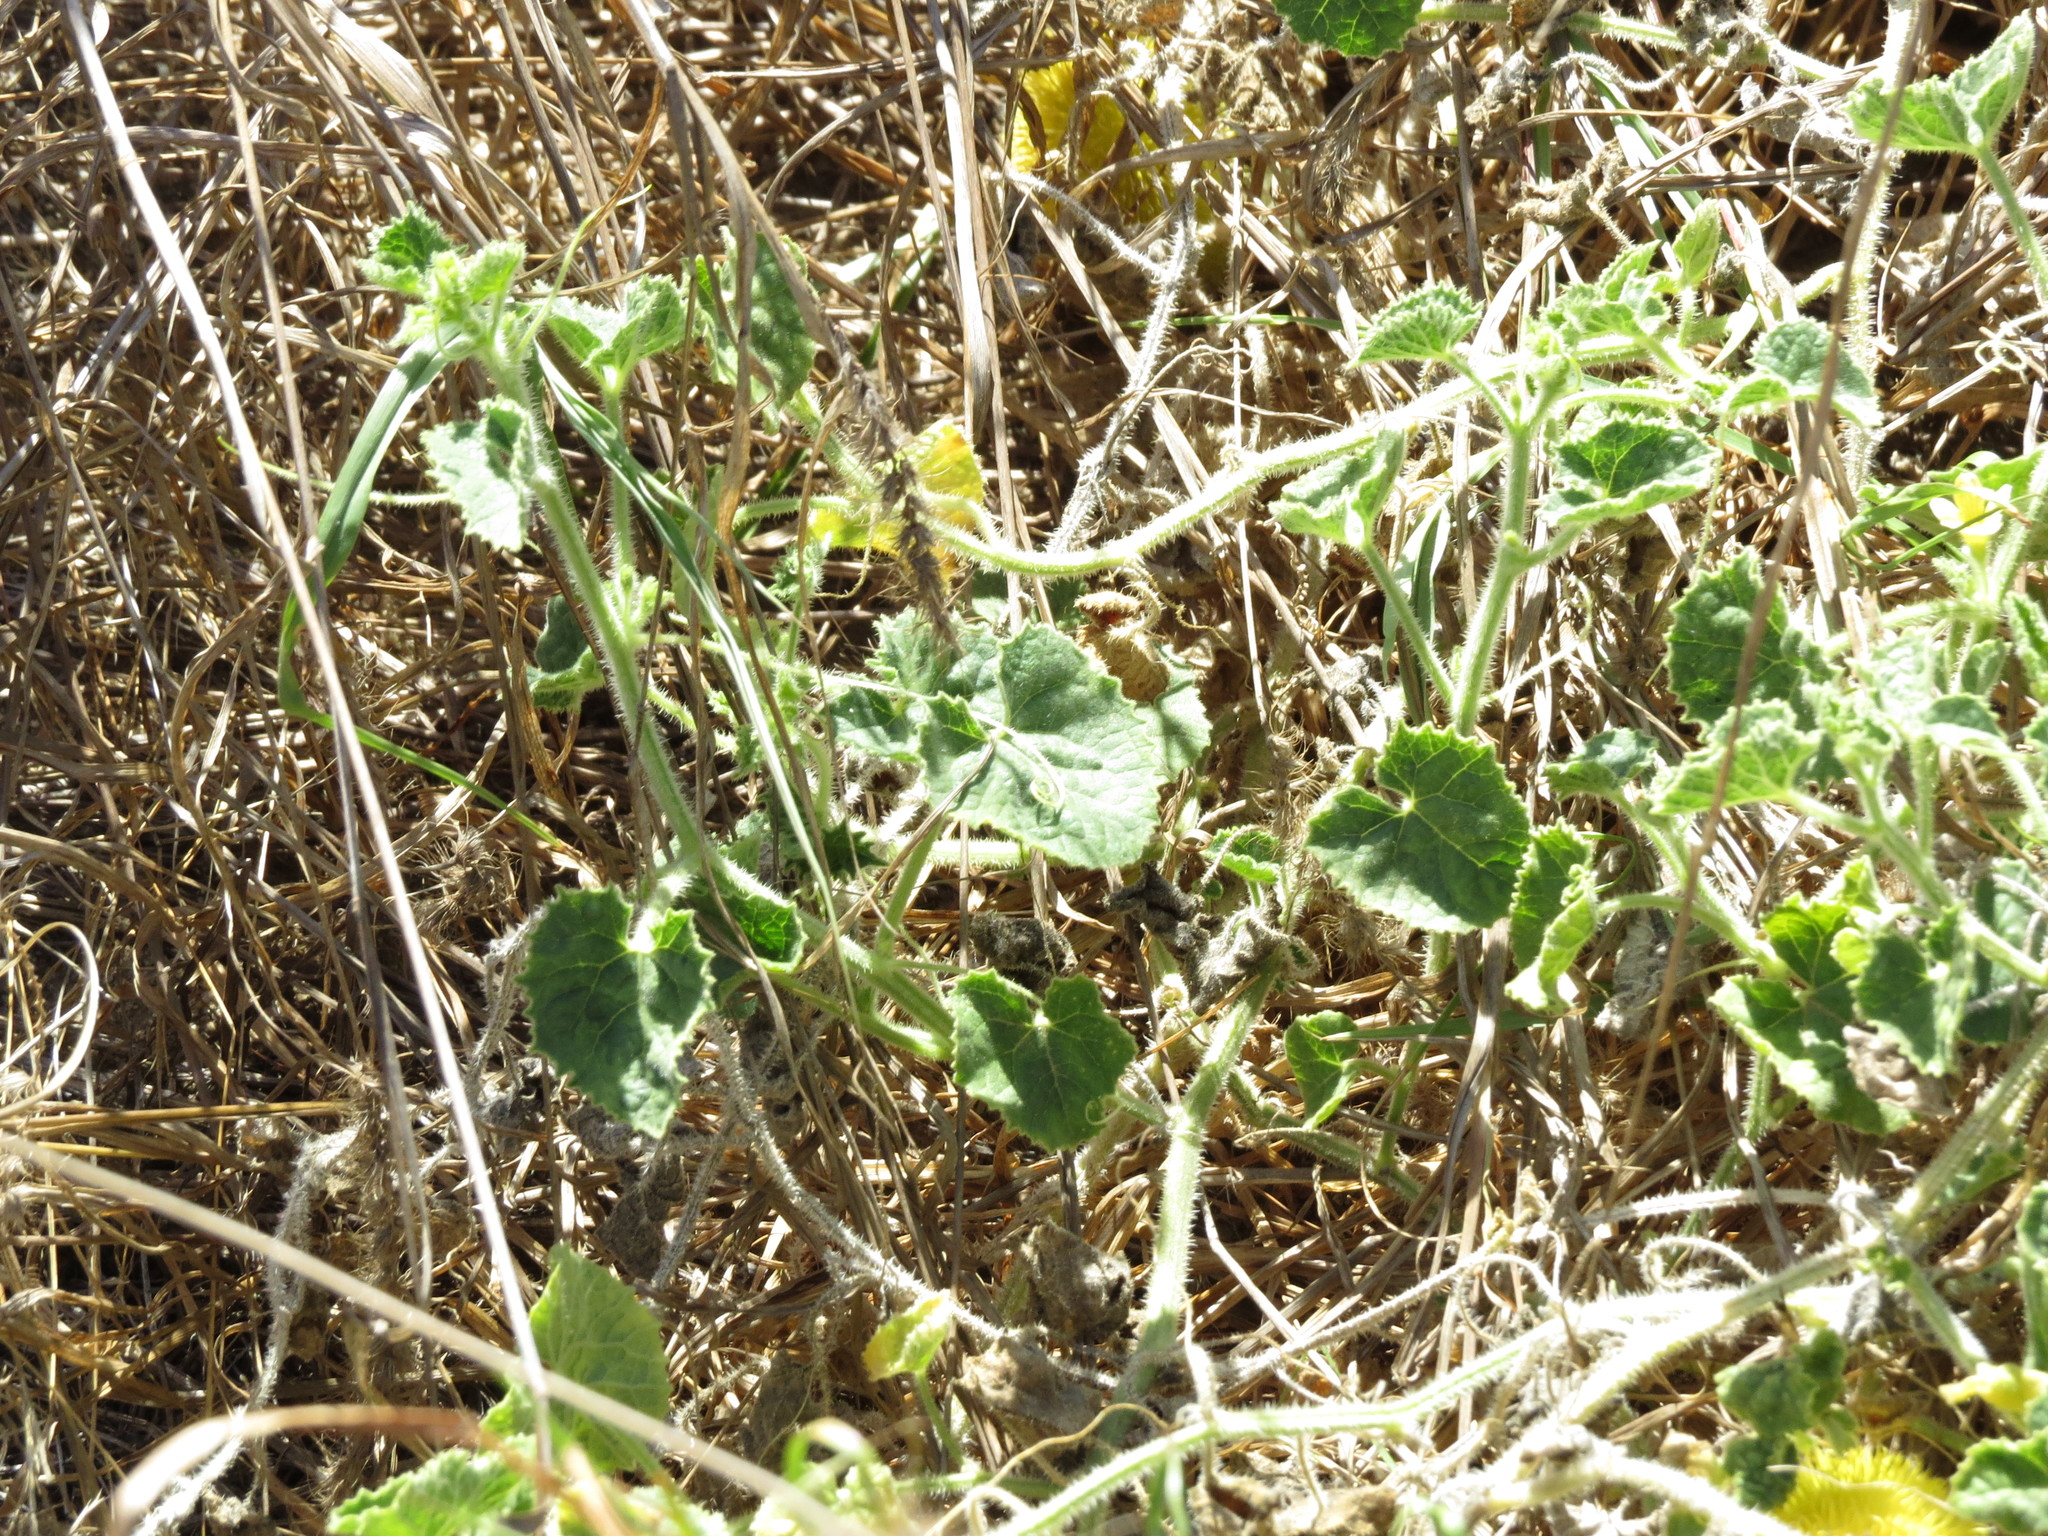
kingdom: Plantae
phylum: Tracheophyta
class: Magnoliopsida
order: Cucurbitales
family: Cucurbitaceae
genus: Cucumis
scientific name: Cucumis dipsaceus
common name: Hedgehog gourd
